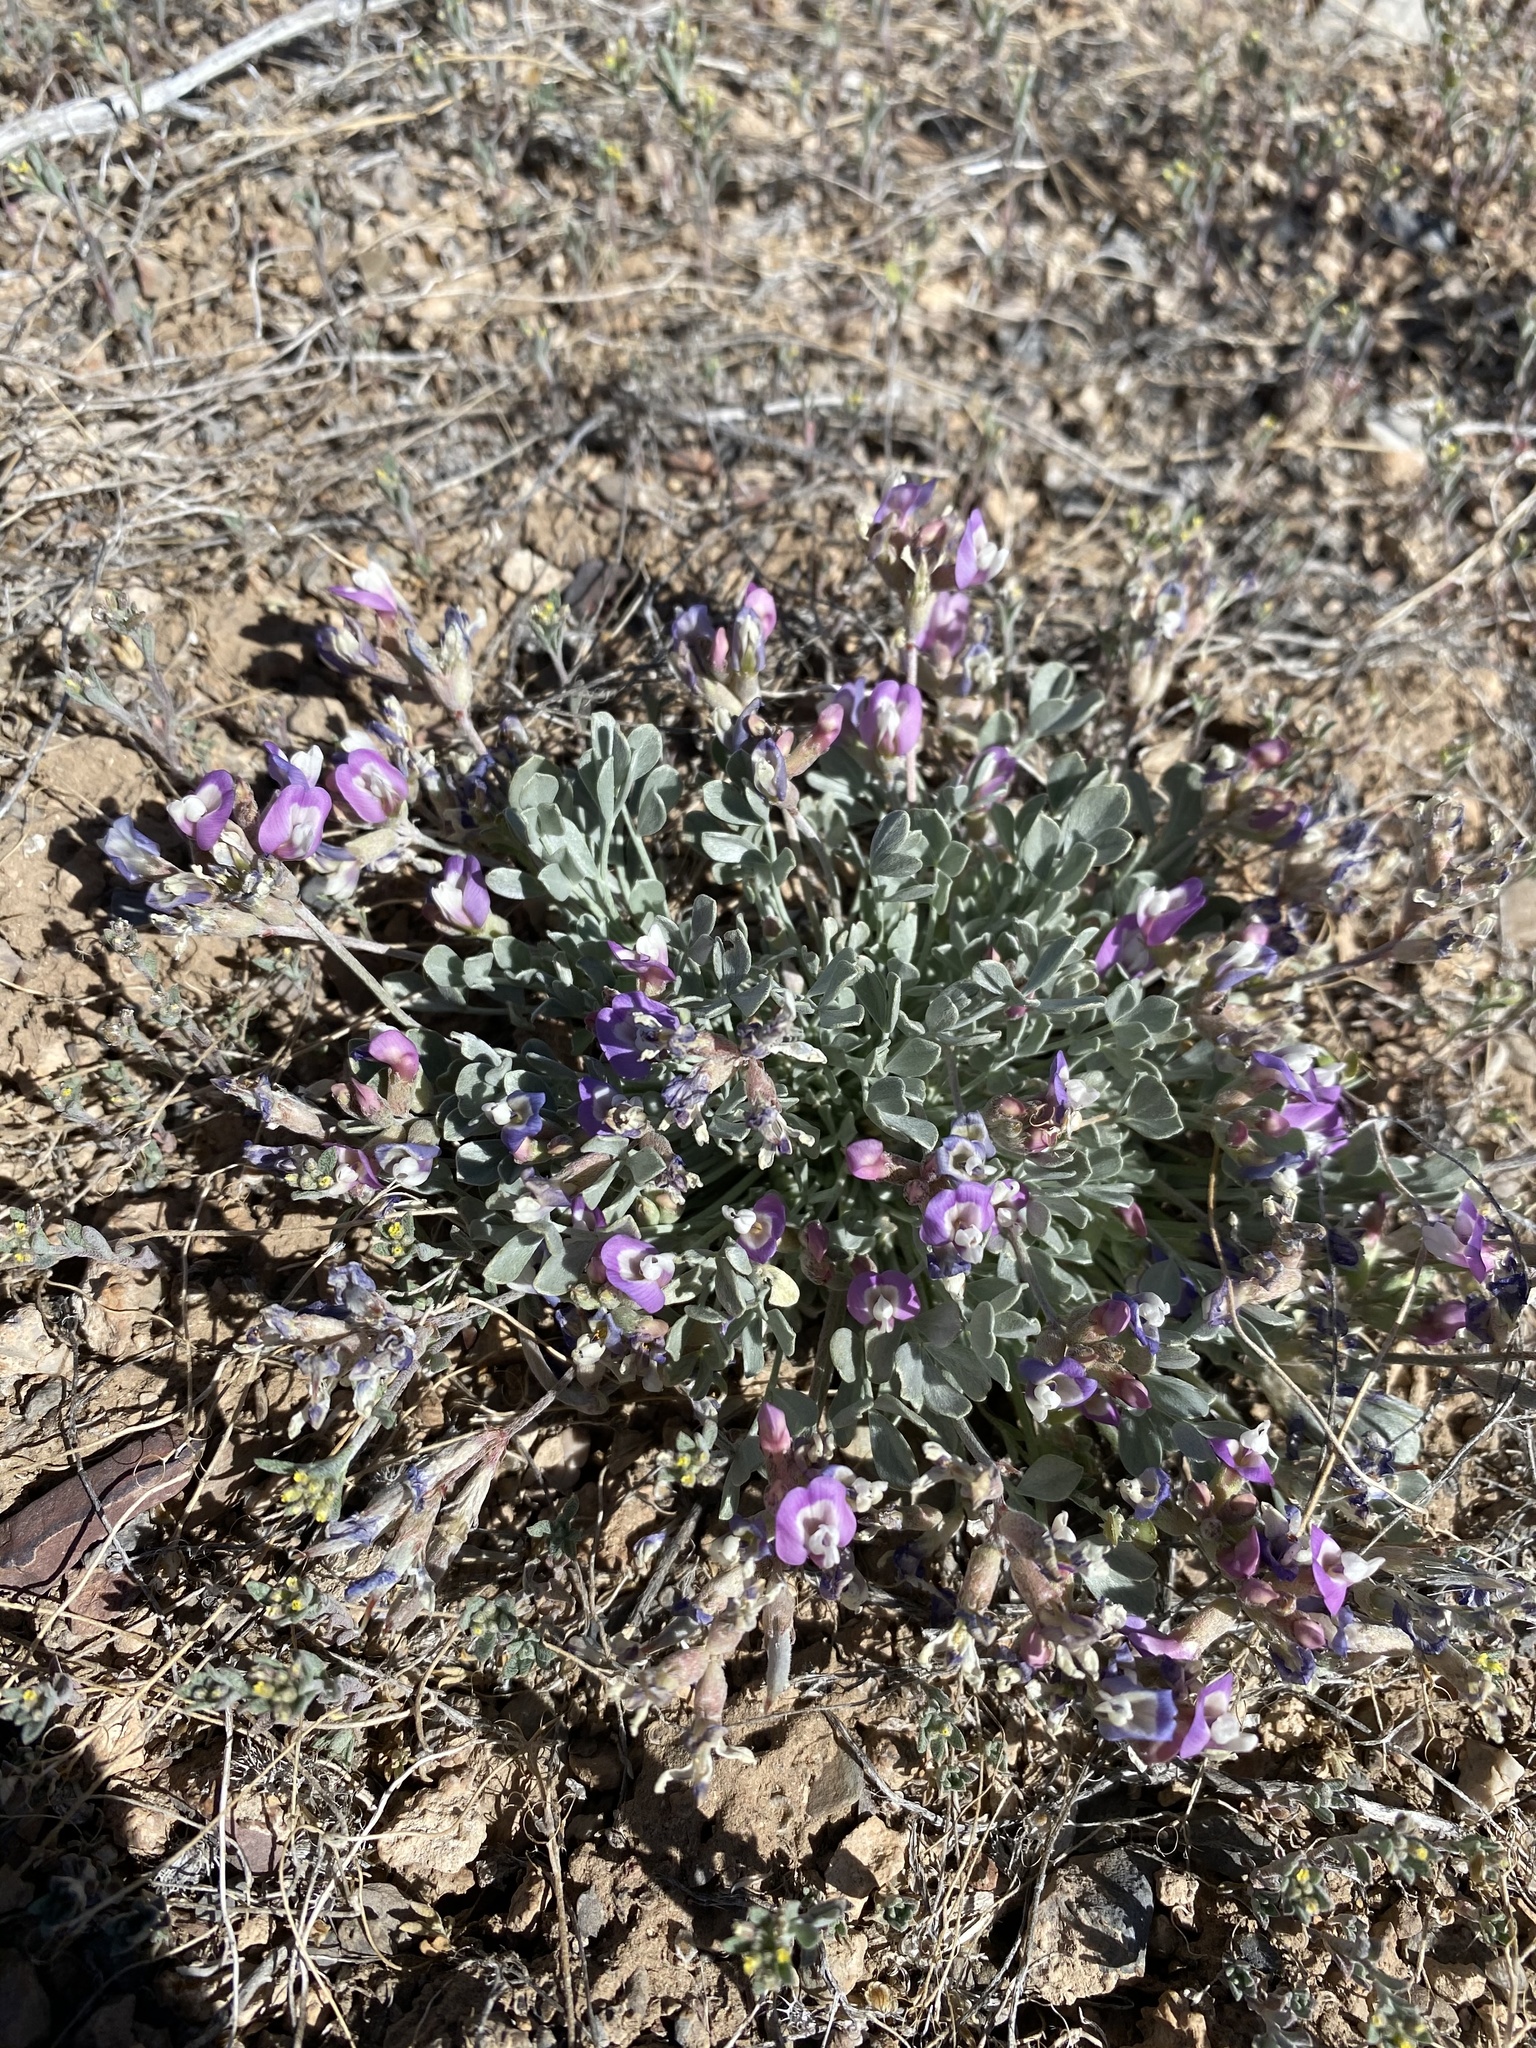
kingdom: Plantae
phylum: Tracheophyta
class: Magnoliopsida
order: Fabales
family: Fabaceae
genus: Astragalus
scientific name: Astragalus calycosus
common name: King's milkvetch
